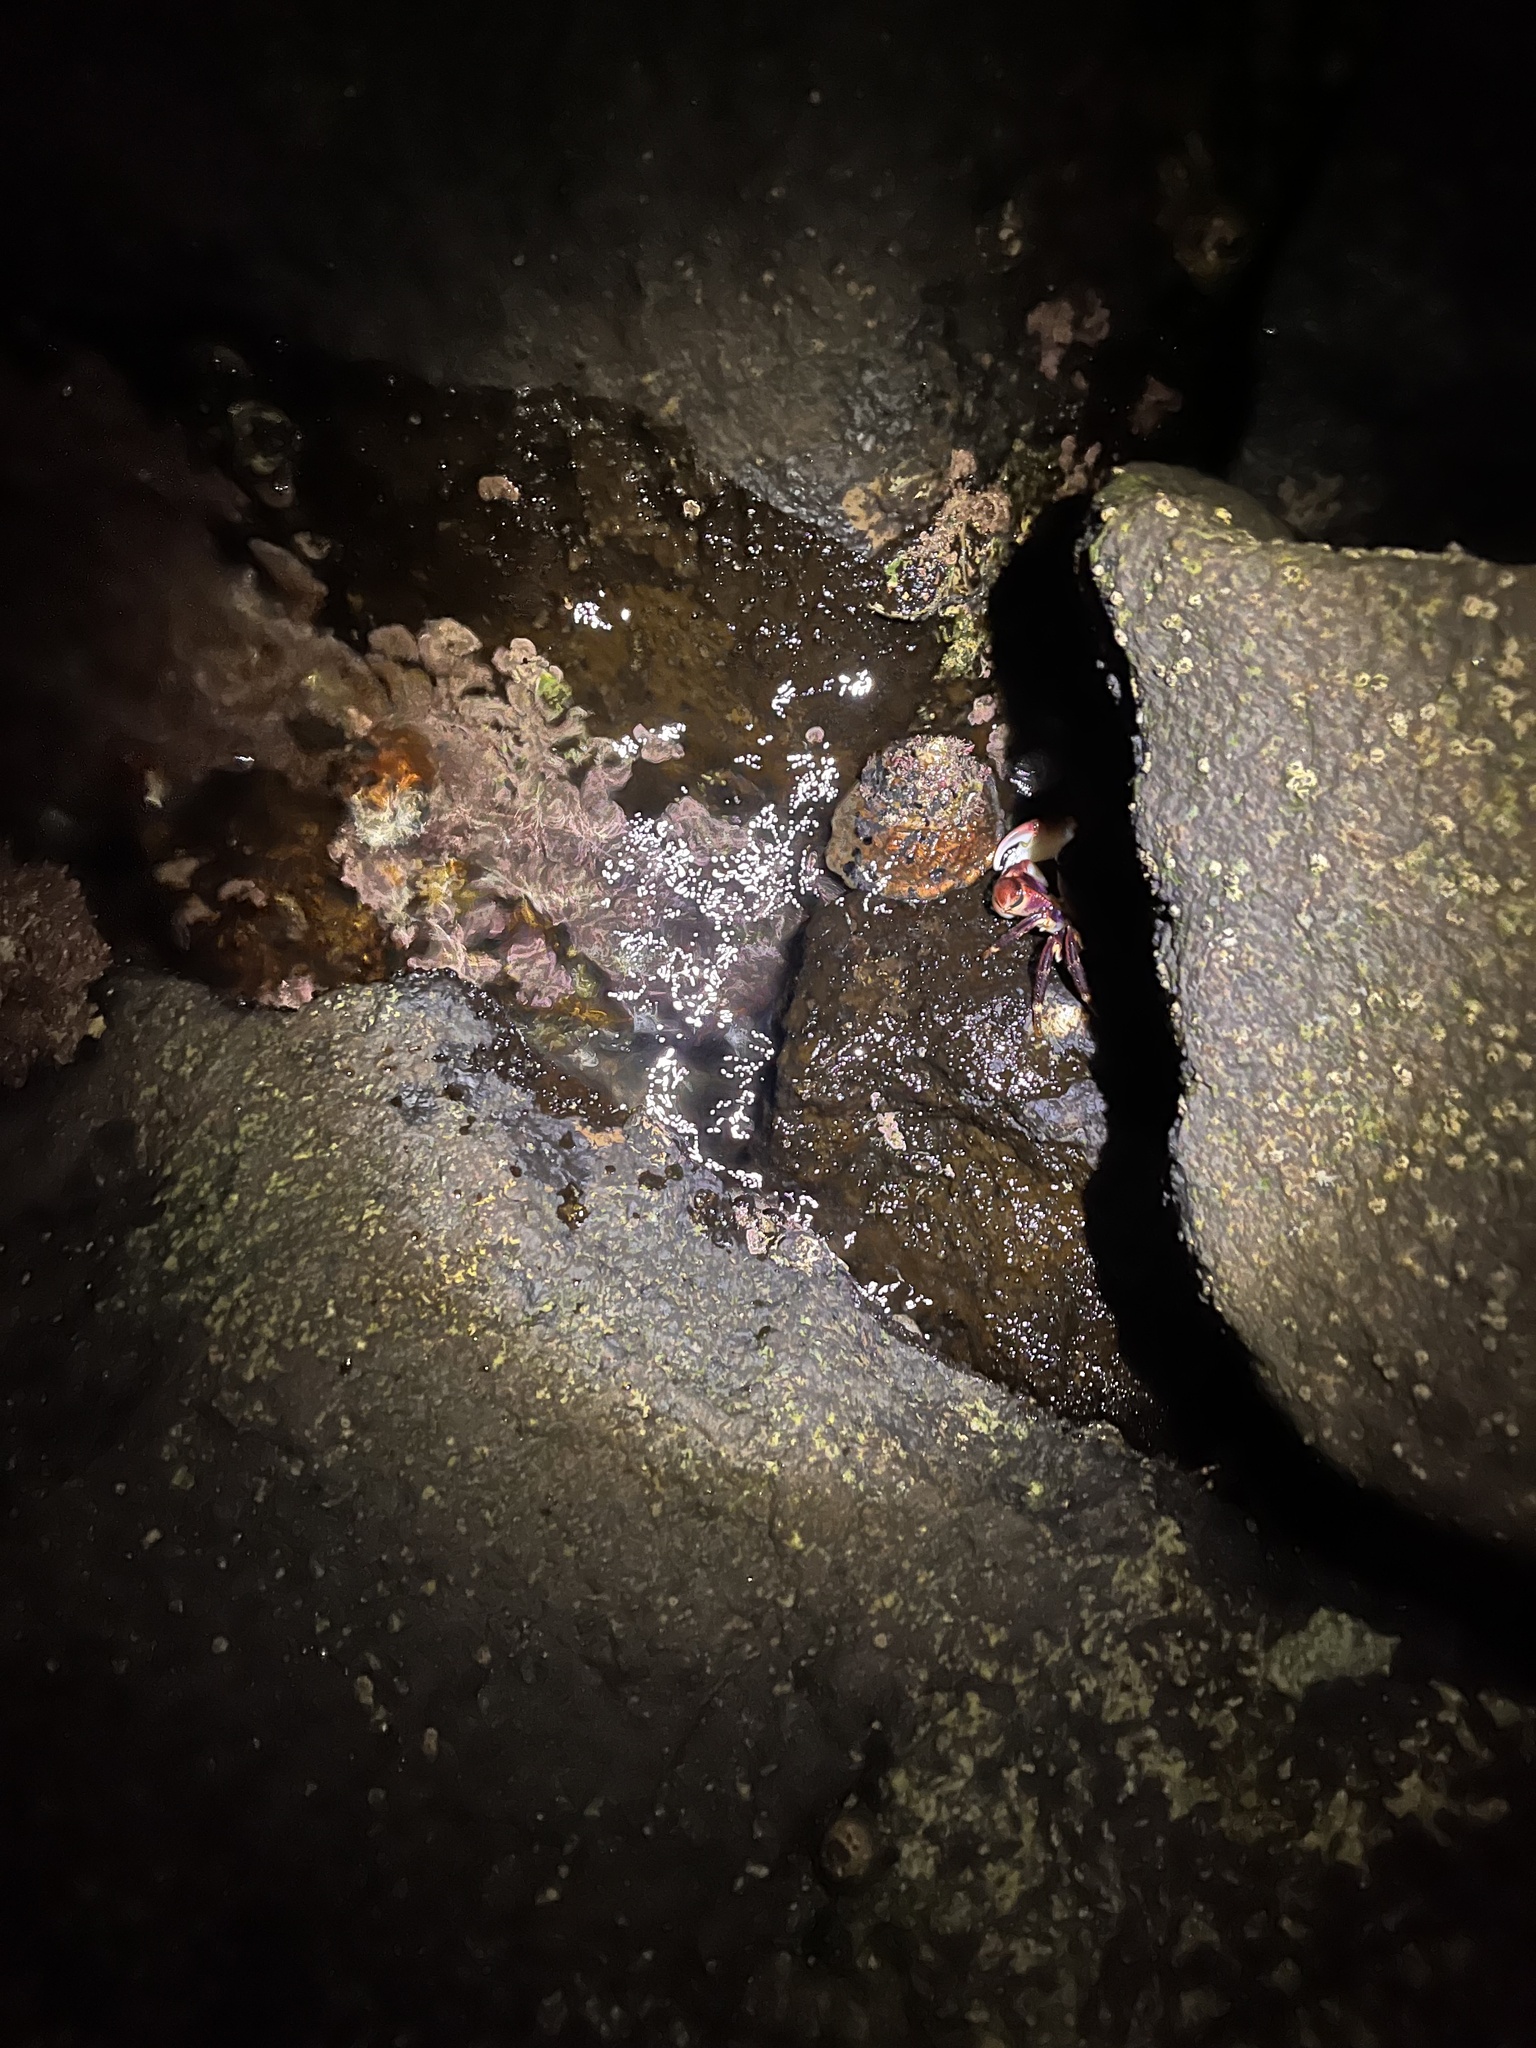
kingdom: Animalia
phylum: Mollusca
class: Gastropoda
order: Trochida
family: Turbinidae
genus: Megastraea
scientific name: Megastraea undosa
